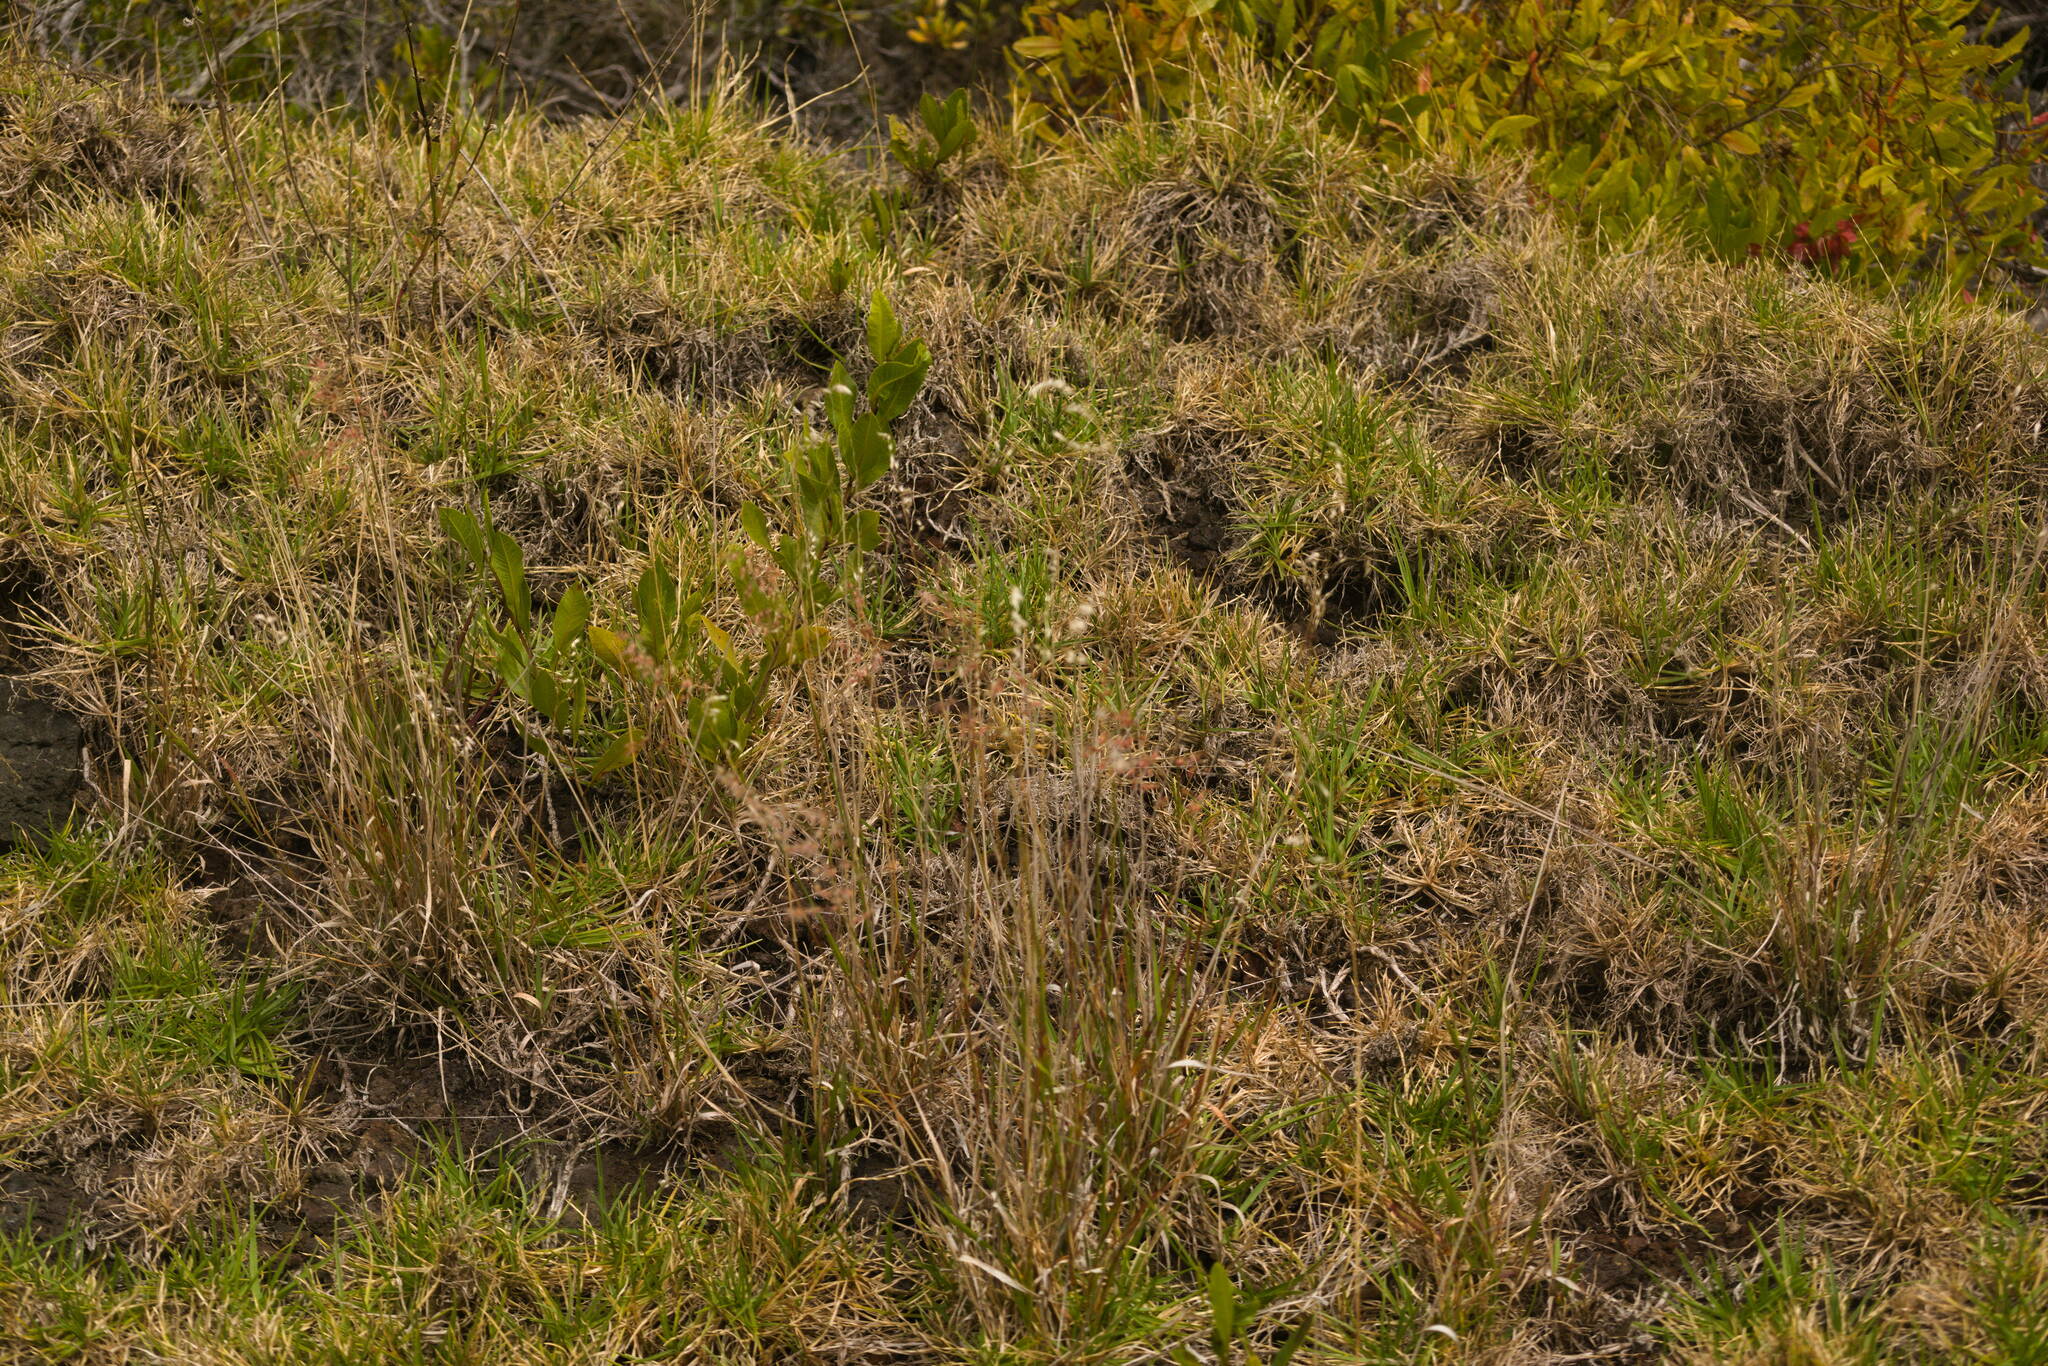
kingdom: Plantae
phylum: Tracheophyta
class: Liliopsida
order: Poales
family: Poaceae
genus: Melinis
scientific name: Melinis repens
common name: Rose natal grass
